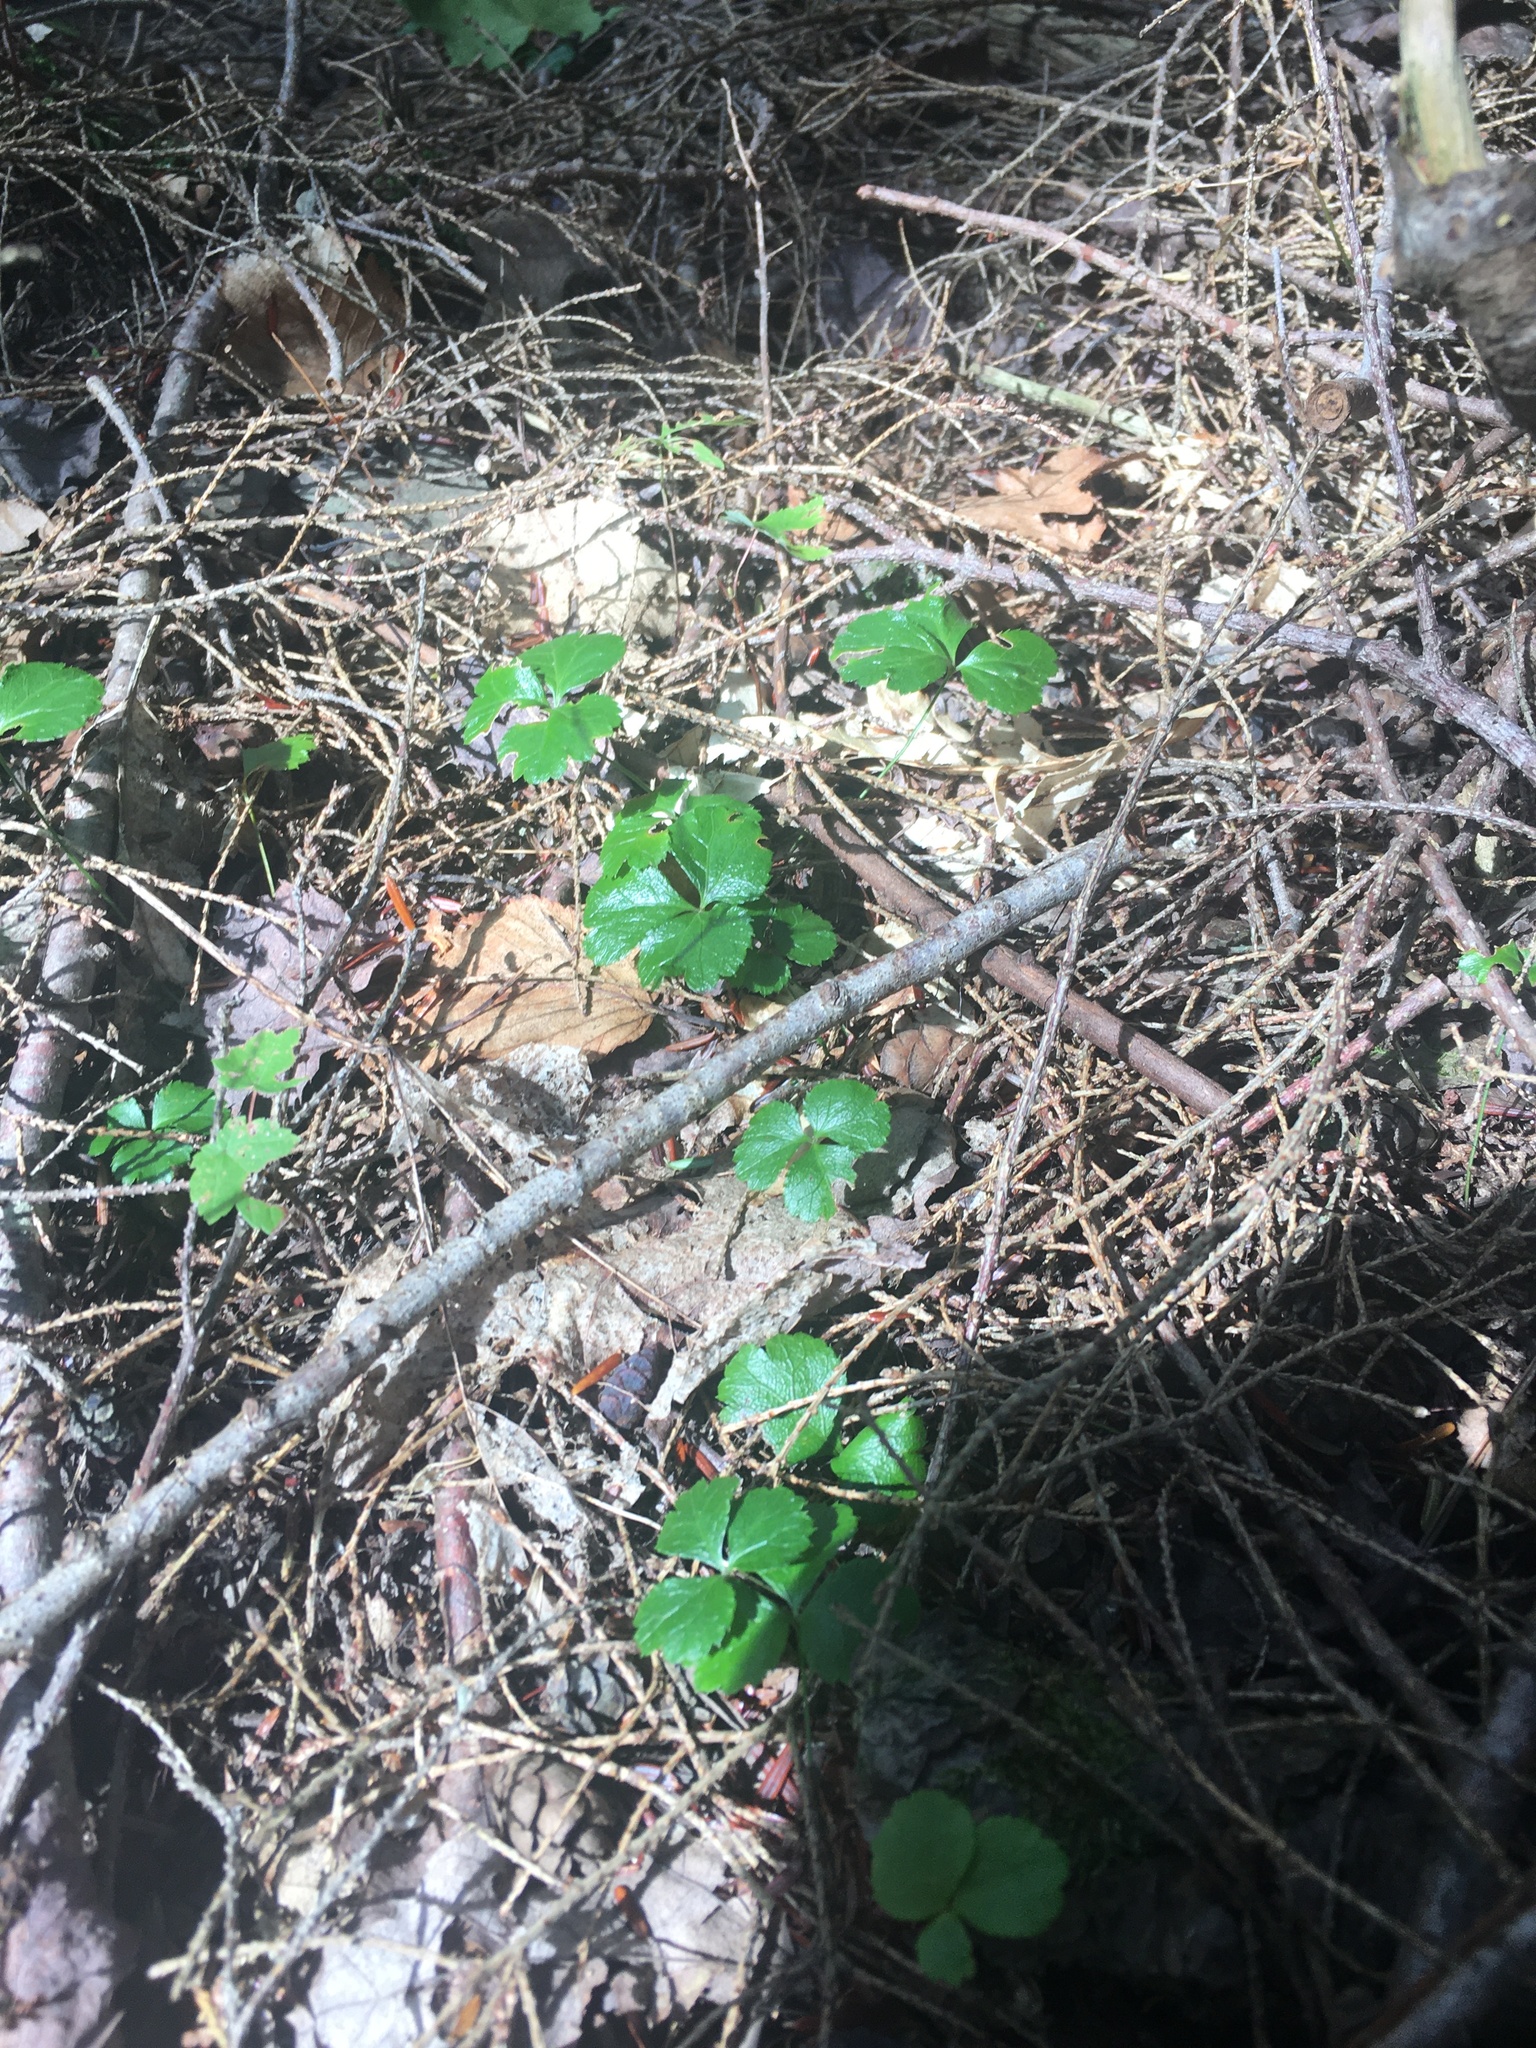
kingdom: Plantae
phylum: Tracheophyta
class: Magnoliopsida
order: Ranunculales
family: Ranunculaceae
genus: Coptis
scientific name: Coptis trifolia
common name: Canker-root
